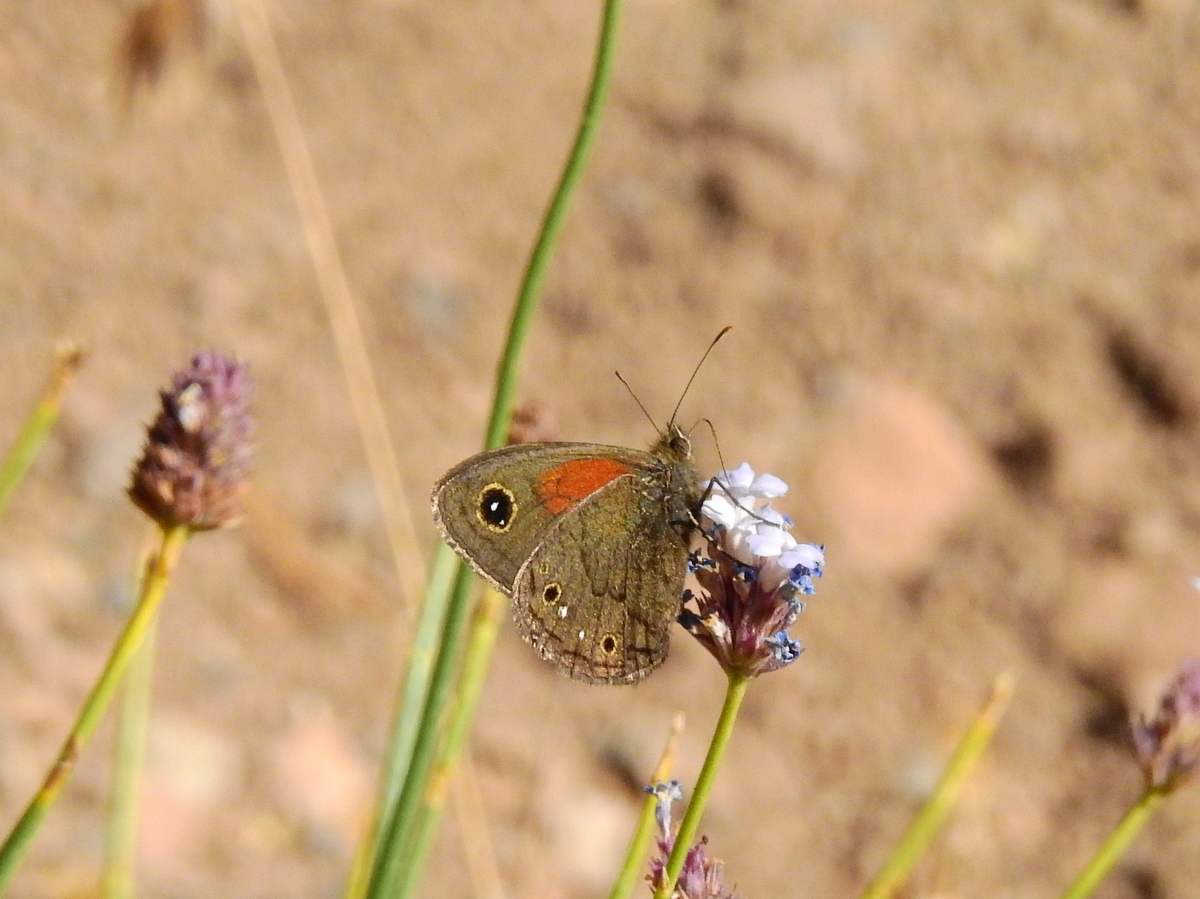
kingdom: Animalia
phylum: Arthropoda
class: Insecta
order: Lepidoptera
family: Nymphalidae
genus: Cosmosatyrus
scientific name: Cosmosatyrus leptoneuroides
